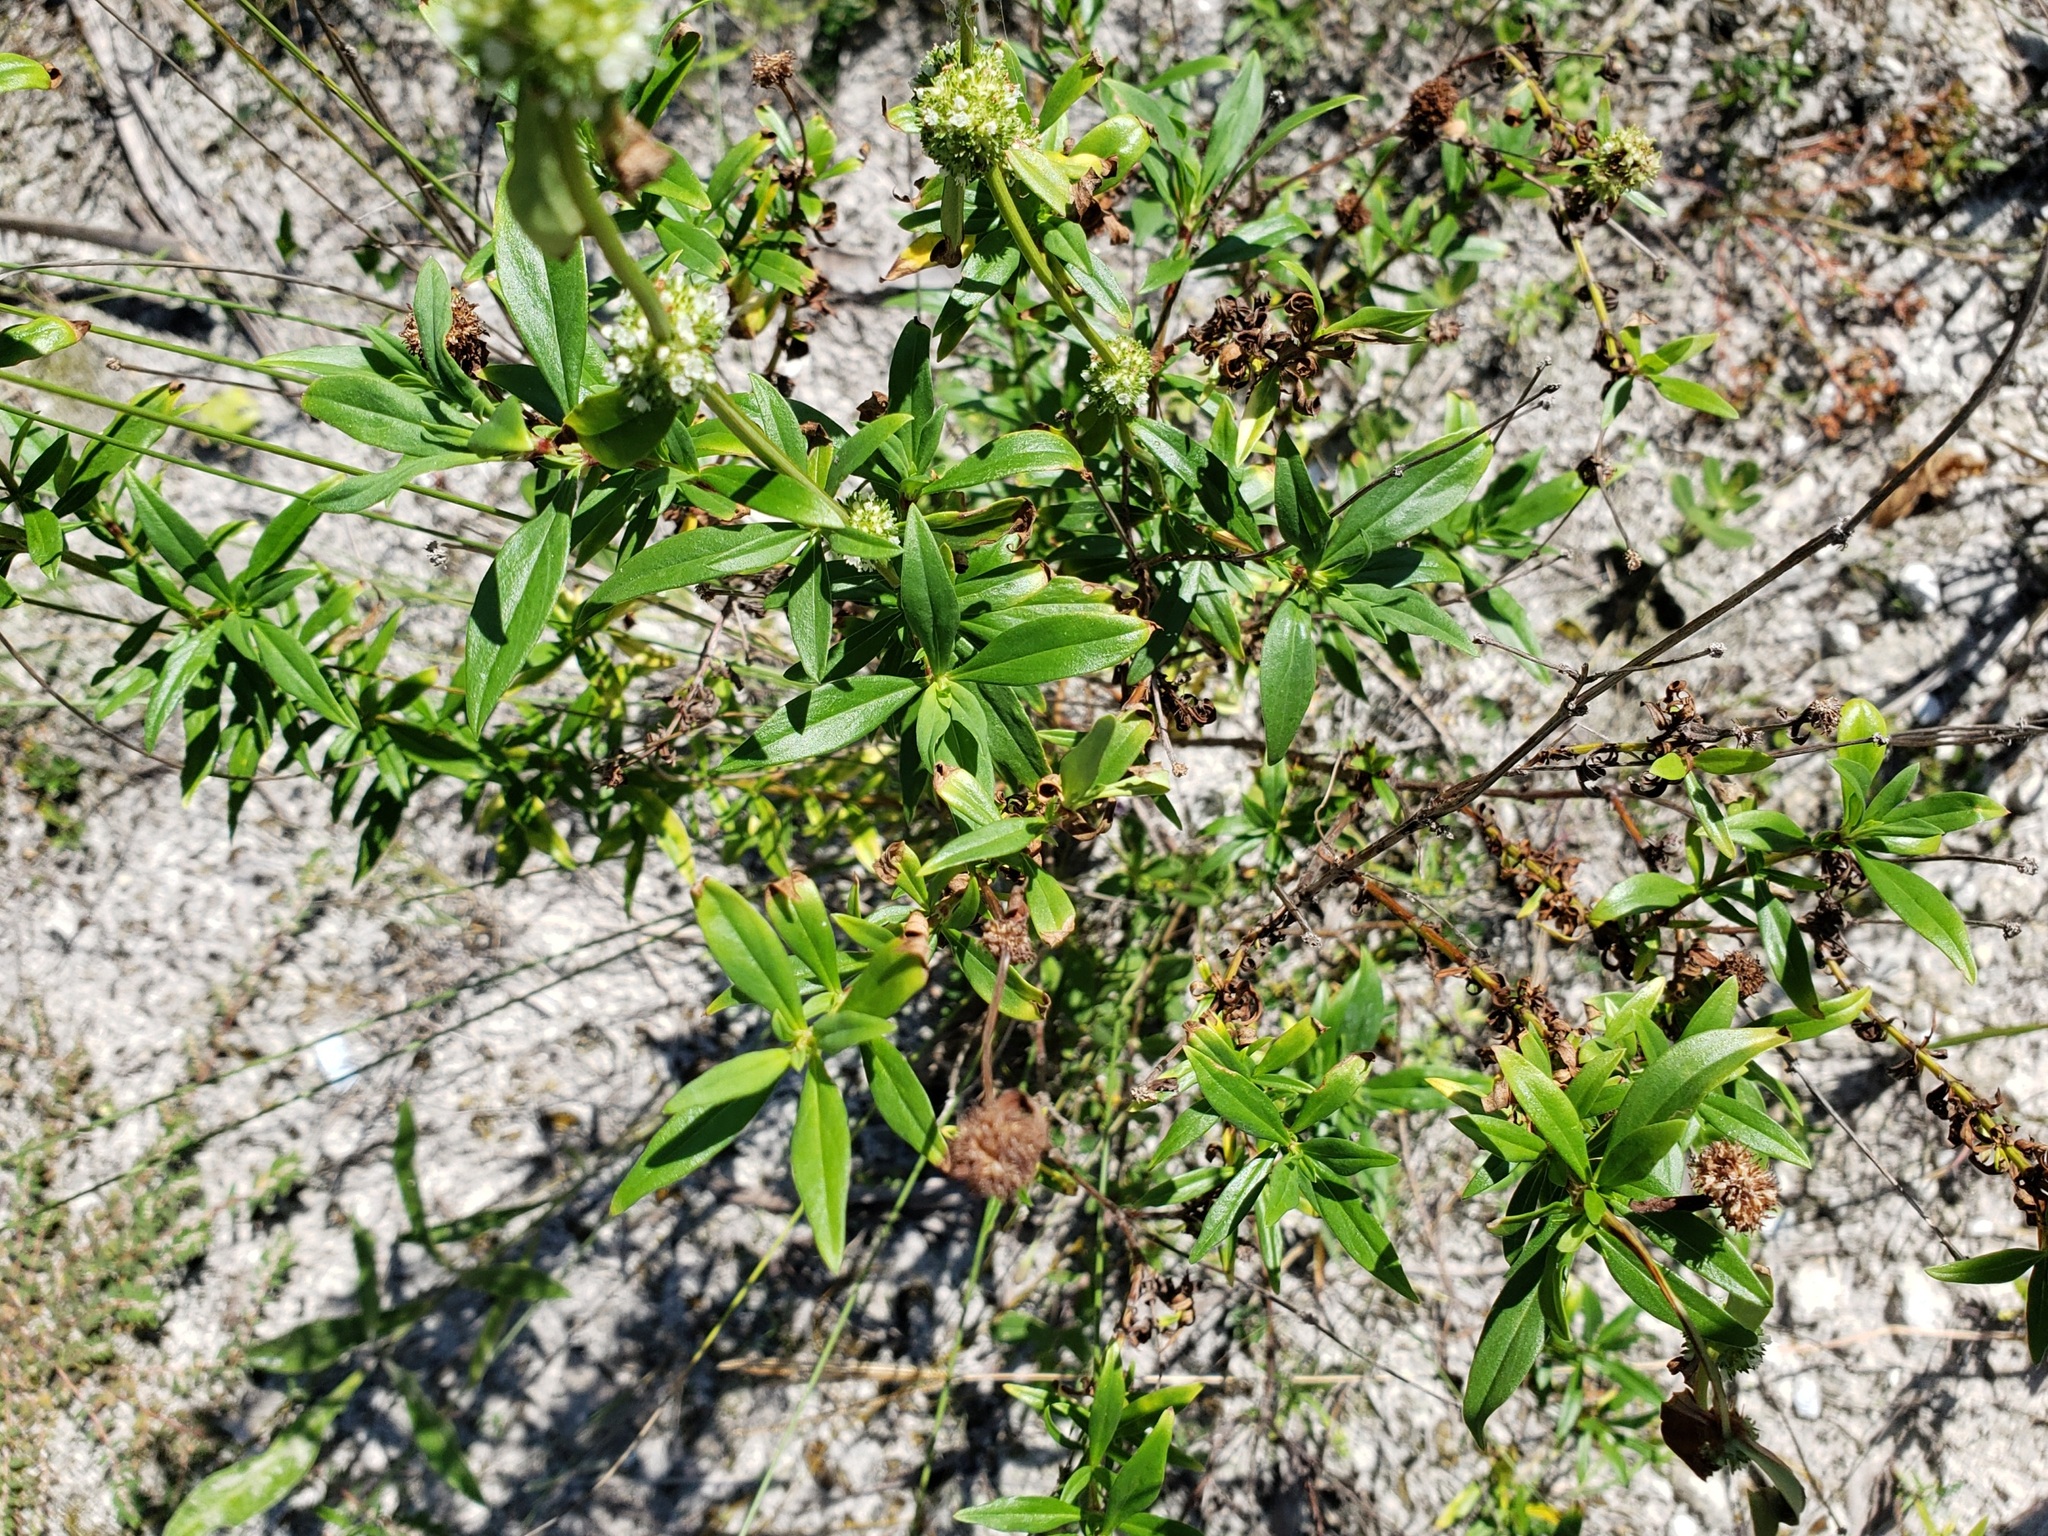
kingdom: Plantae
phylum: Tracheophyta
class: Magnoliopsida
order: Gentianales
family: Rubiaceae
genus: Spermacoce
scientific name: Spermacoce verticillata
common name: Shrubby false buttonweed
